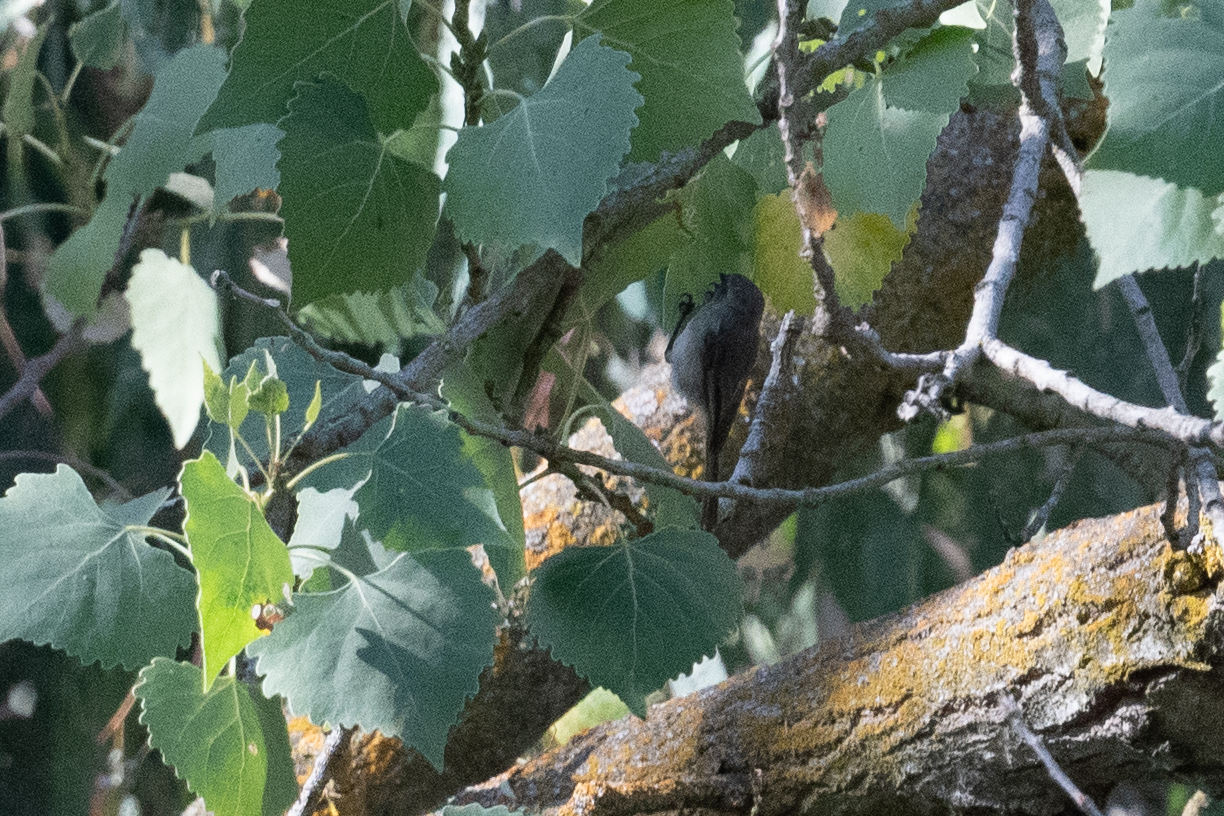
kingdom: Animalia
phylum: Chordata
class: Aves
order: Passeriformes
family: Aegithalidae
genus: Psaltriparus
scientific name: Psaltriparus minimus
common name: American bushtit
